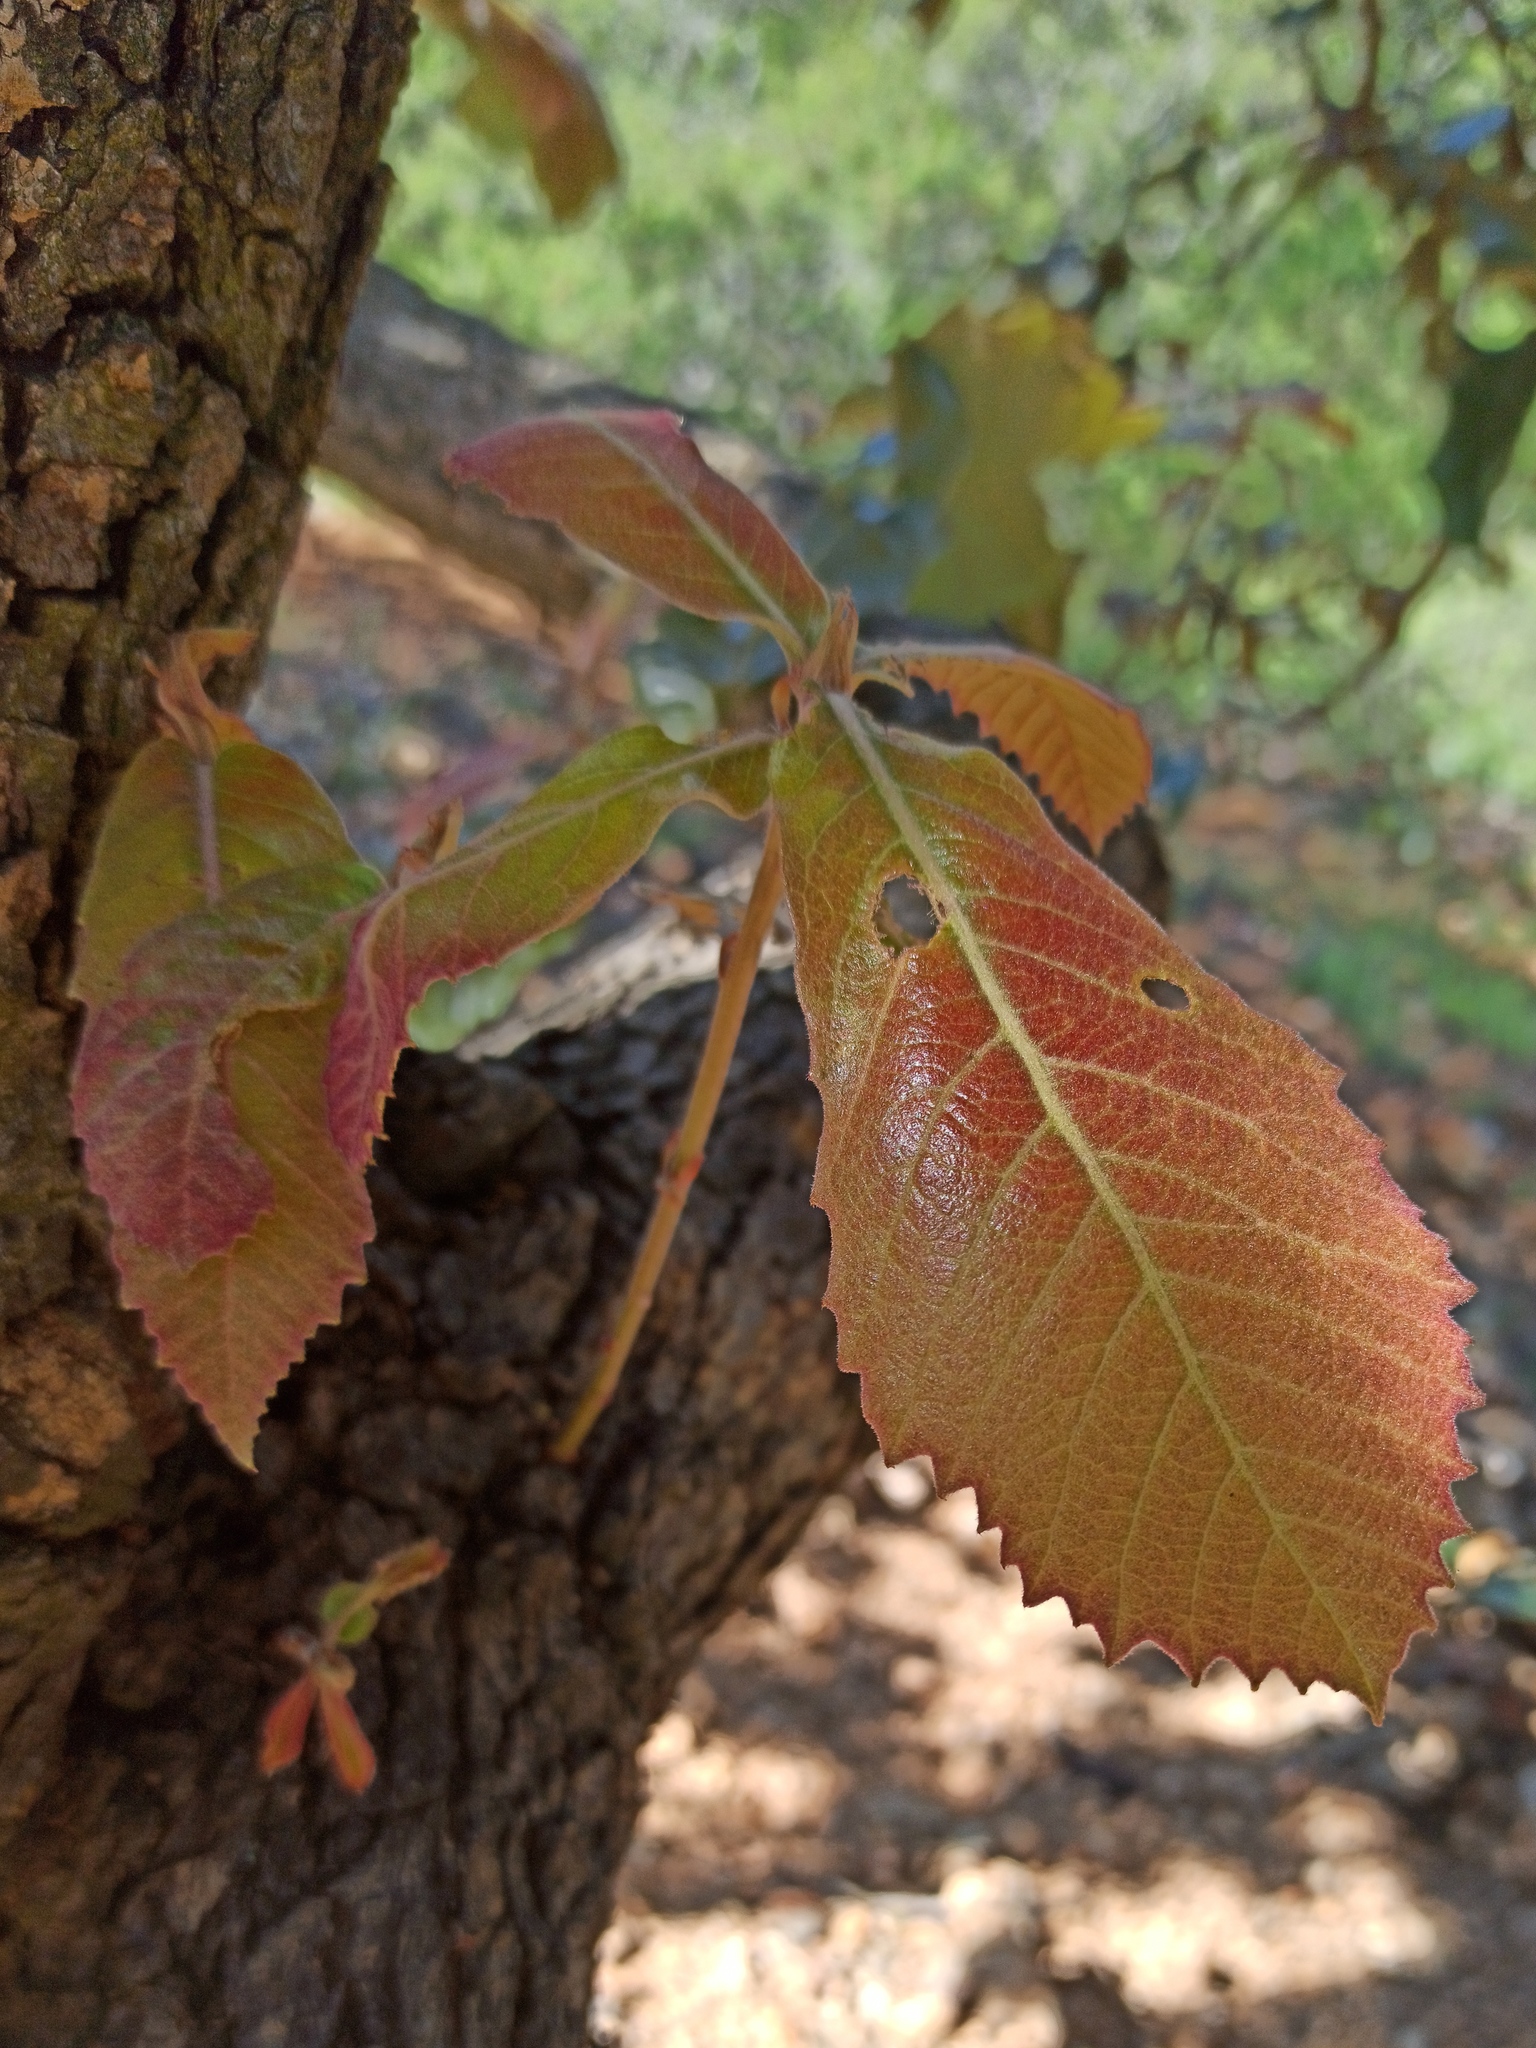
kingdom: Plantae
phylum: Tracheophyta
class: Magnoliopsida
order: Fagales
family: Fagaceae
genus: Quercus
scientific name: Quercus
